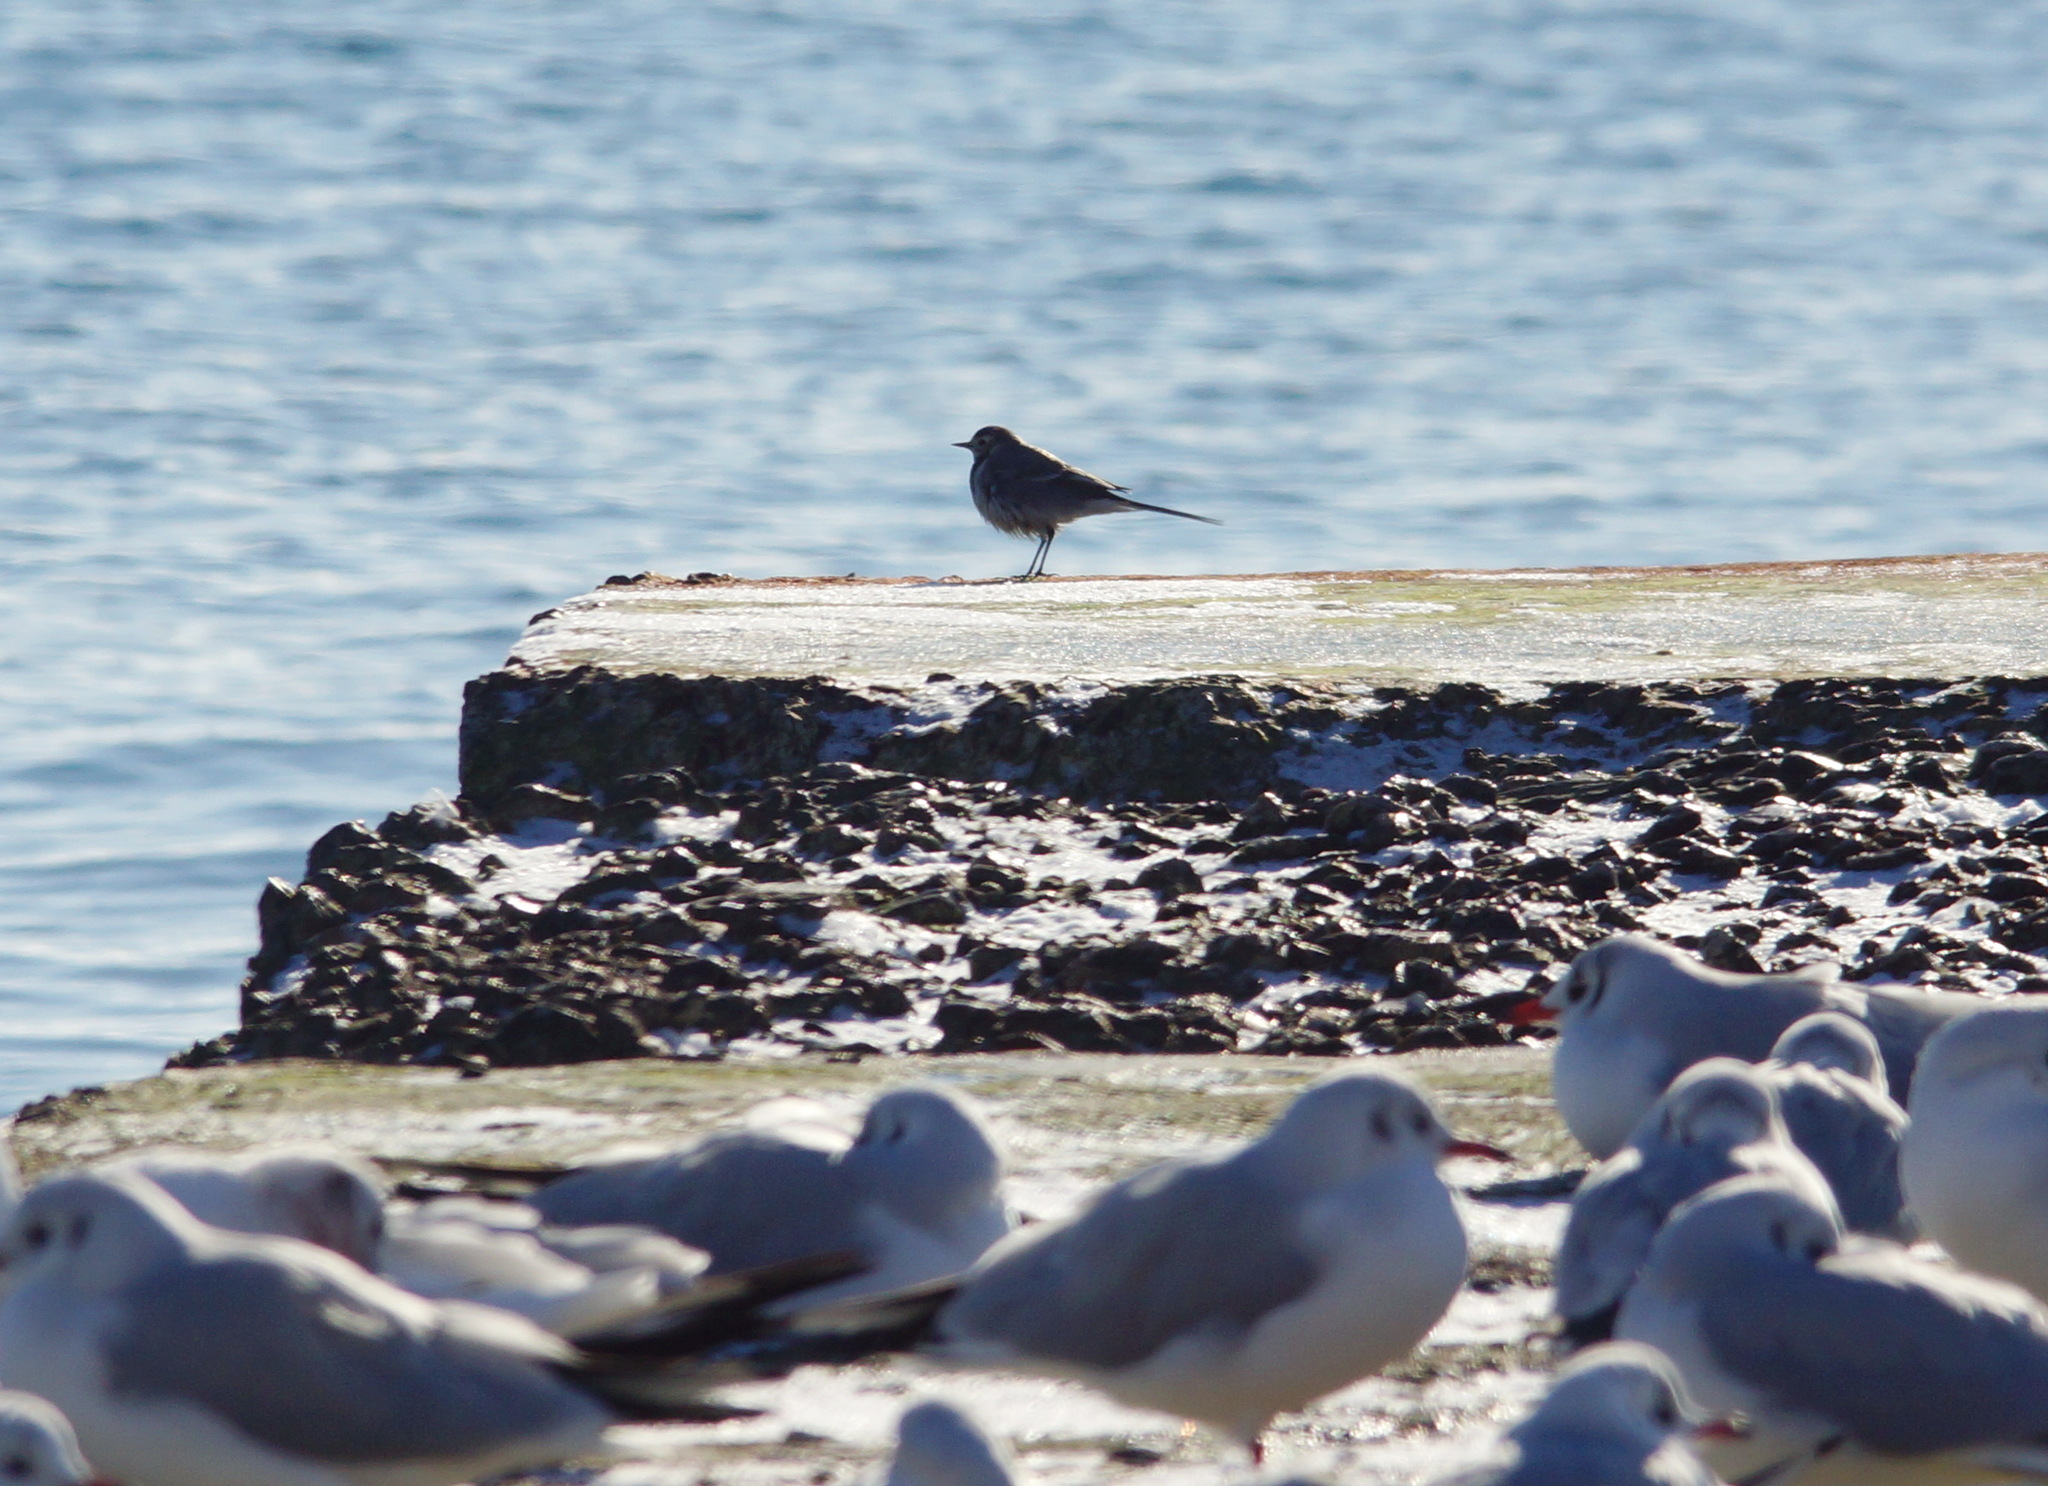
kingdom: Animalia
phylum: Chordata
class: Aves
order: Passeriformes
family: Motacillidae
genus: Motacilla
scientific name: Motacilla alba
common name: White wagtail
